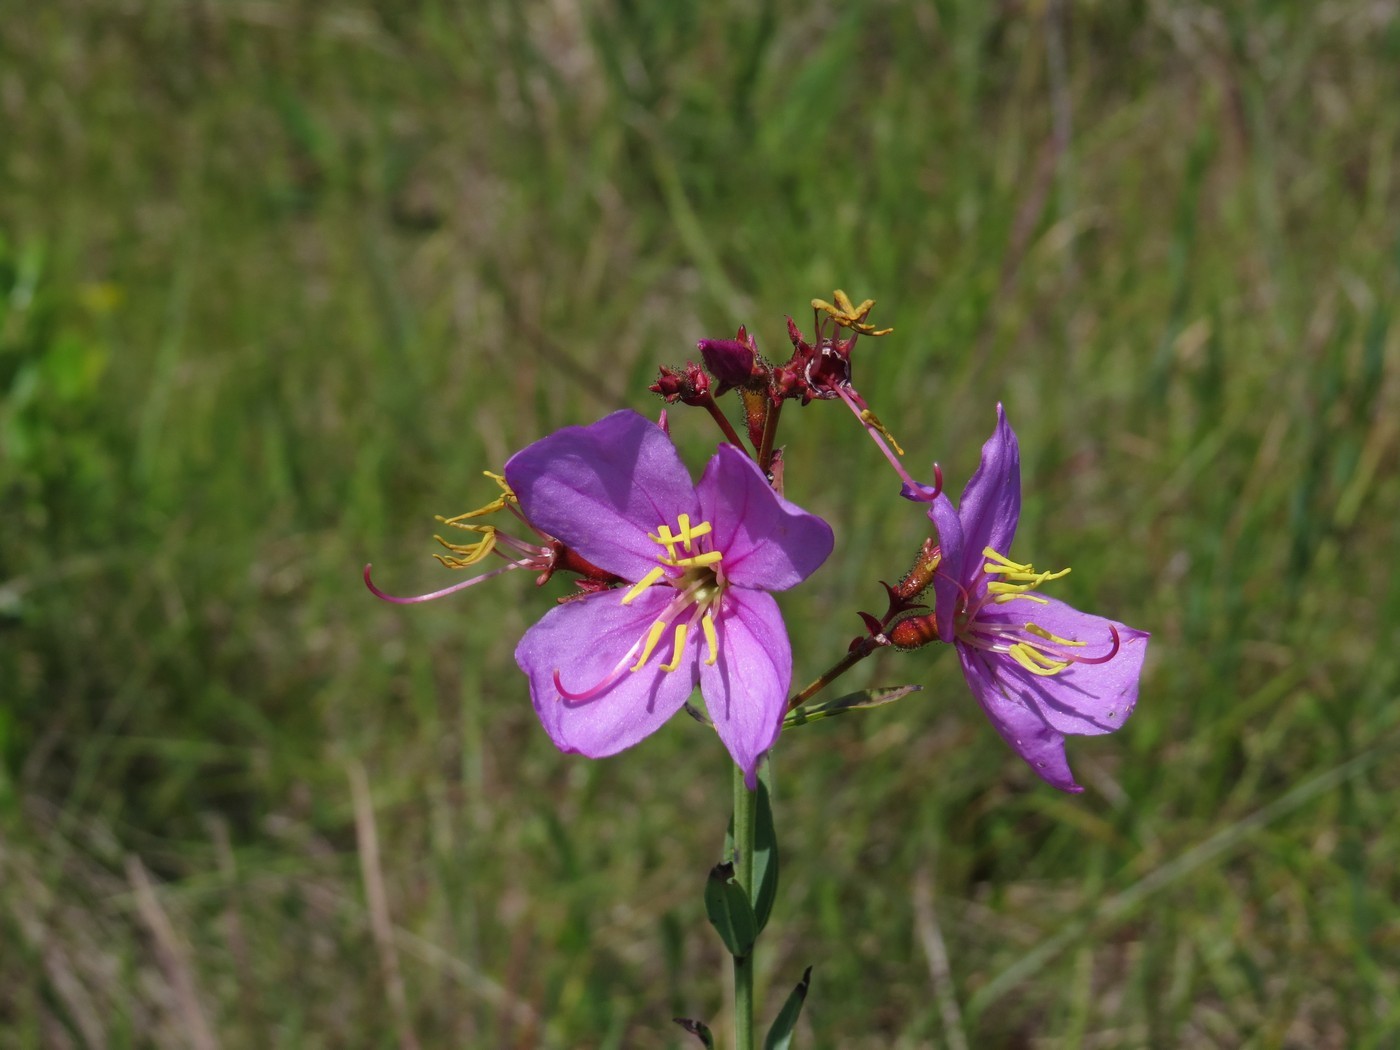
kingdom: Plantae
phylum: Tracheophyta
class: Magnoliopsida
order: Myrtales
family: Melastomataceae
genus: Rhexia
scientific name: Rhexia alifanus
